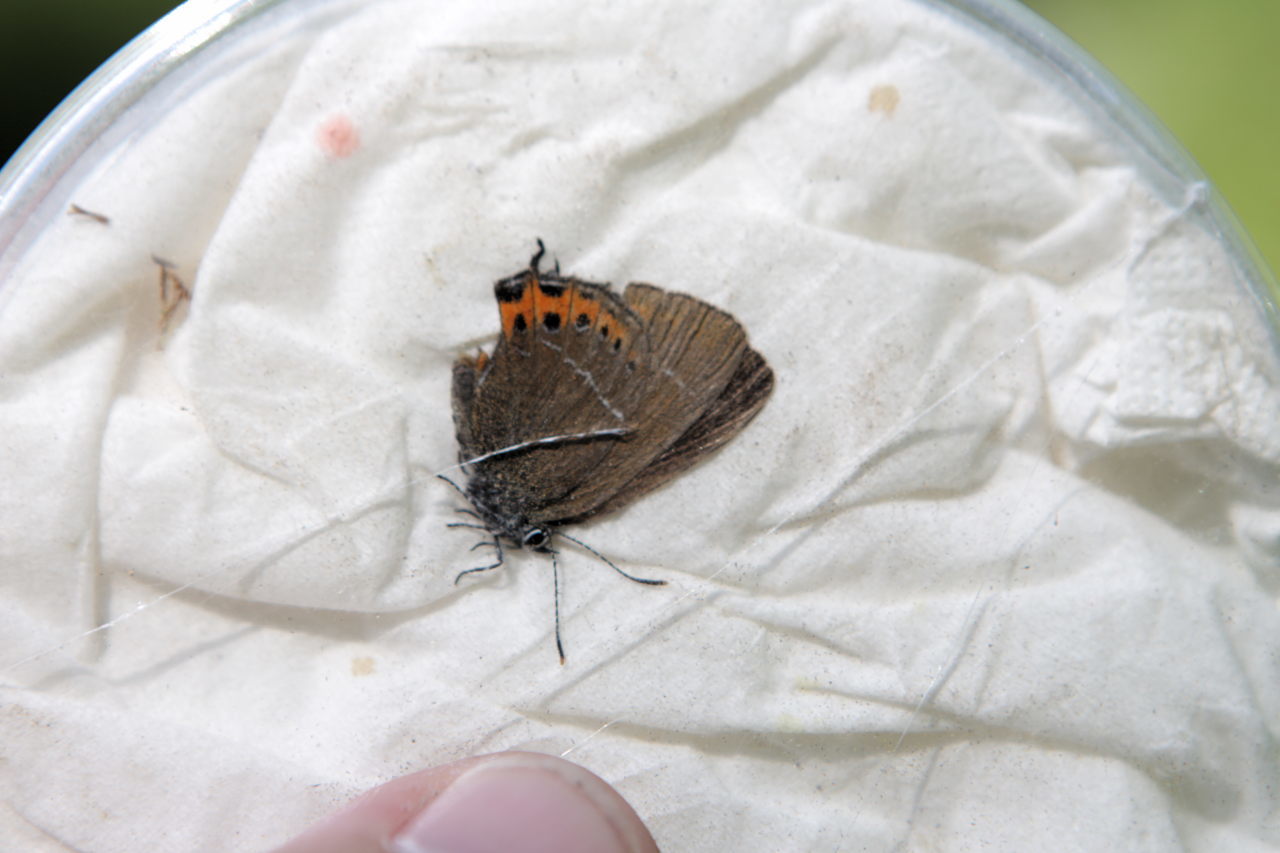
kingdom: Animalia
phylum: Arthropoda
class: Insecta
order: Lepidoptera
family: Lycaenidae
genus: Fixsenia
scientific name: Fixsenia pruni
